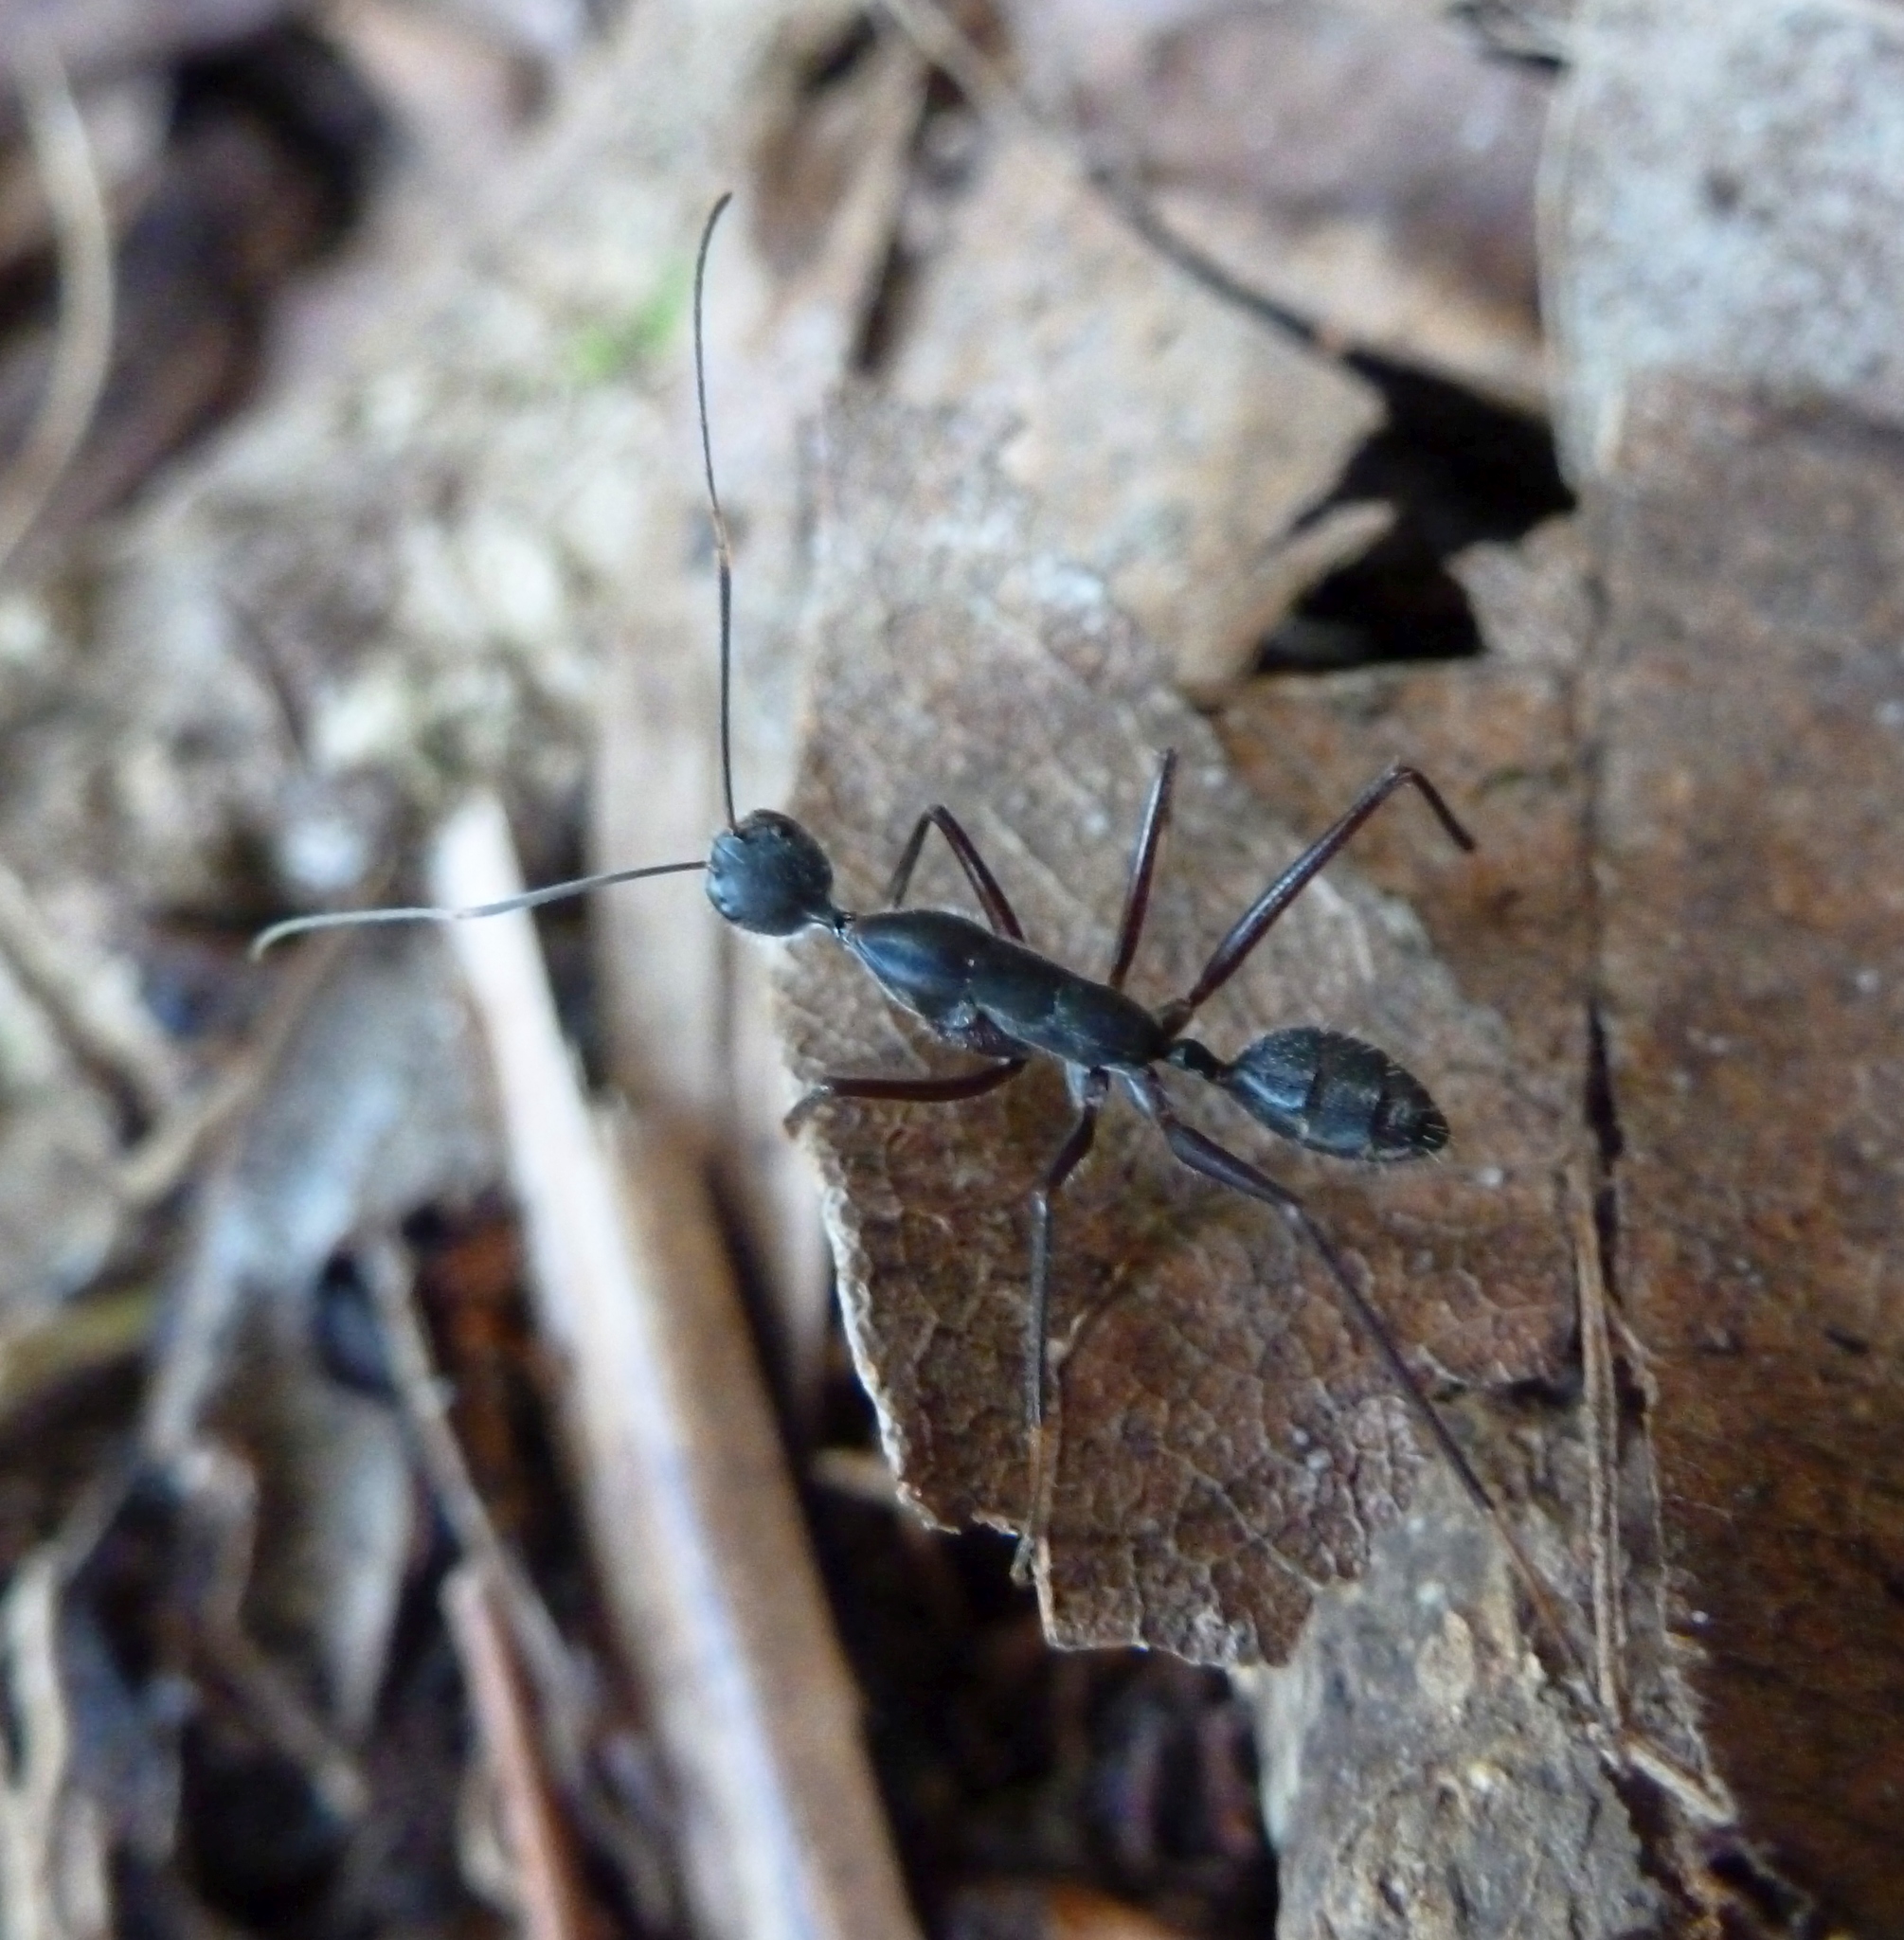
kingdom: Animalia
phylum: Arthropoda
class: Insecta
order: Hymenoptera
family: Formicidae
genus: Camponotus
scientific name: Camponotus dufouri
